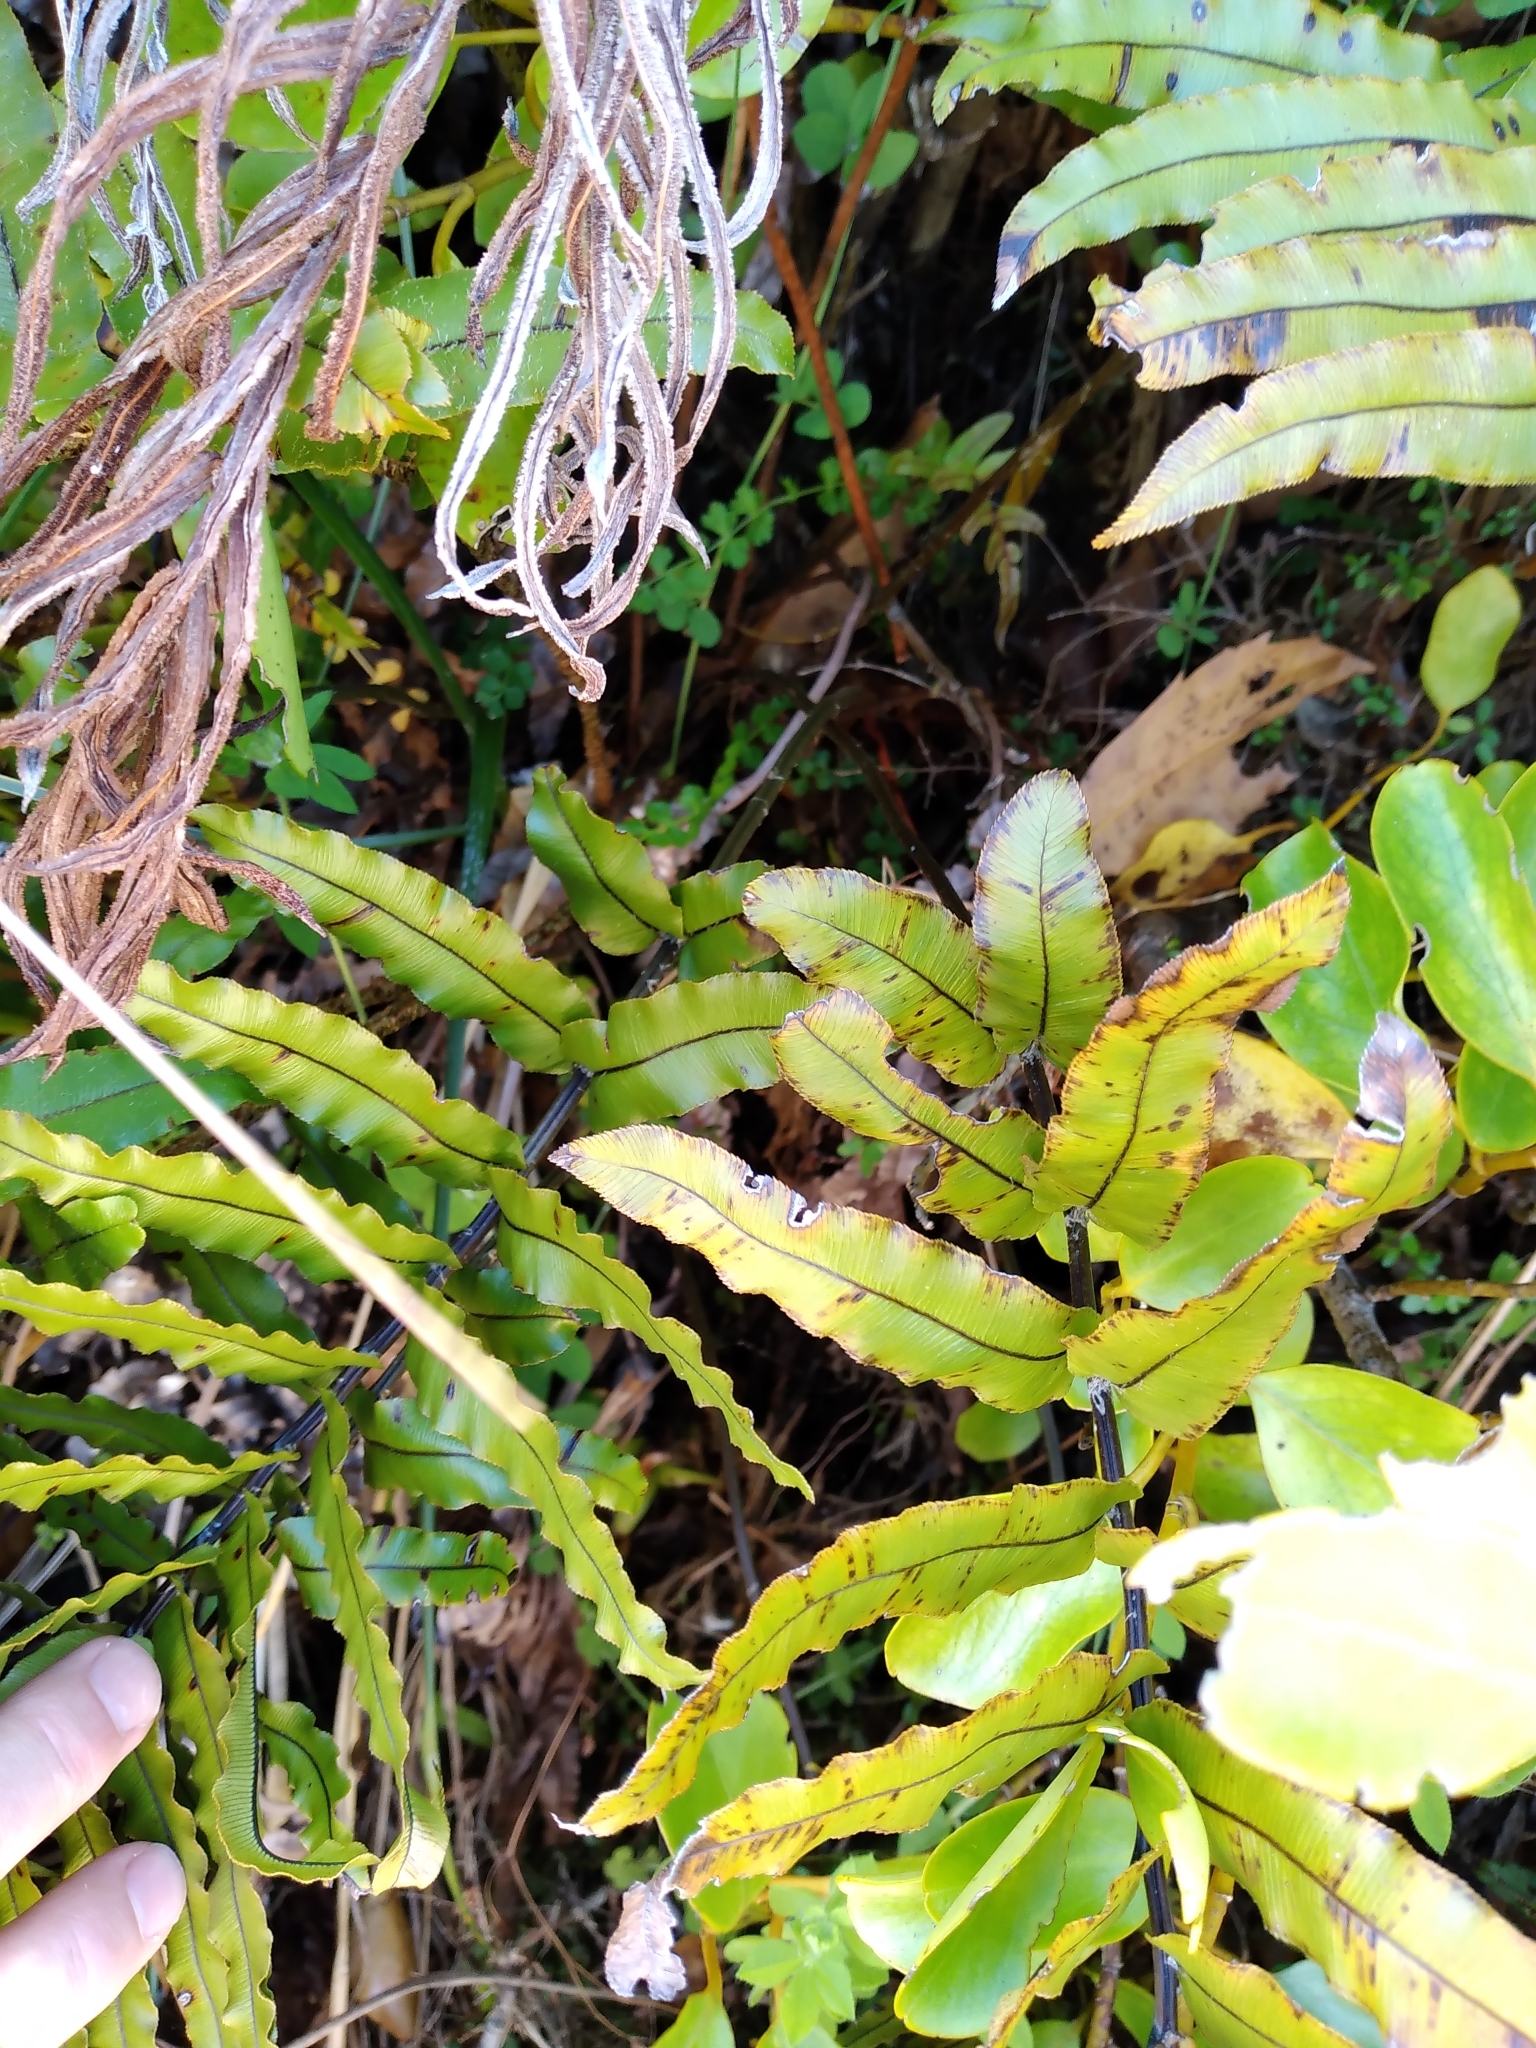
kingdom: Plantae
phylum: Tracheophyta
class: Polypodiopsida
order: Polypodiales
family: Blechnaceae
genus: Parablechnum
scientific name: Parablechnum montanum
